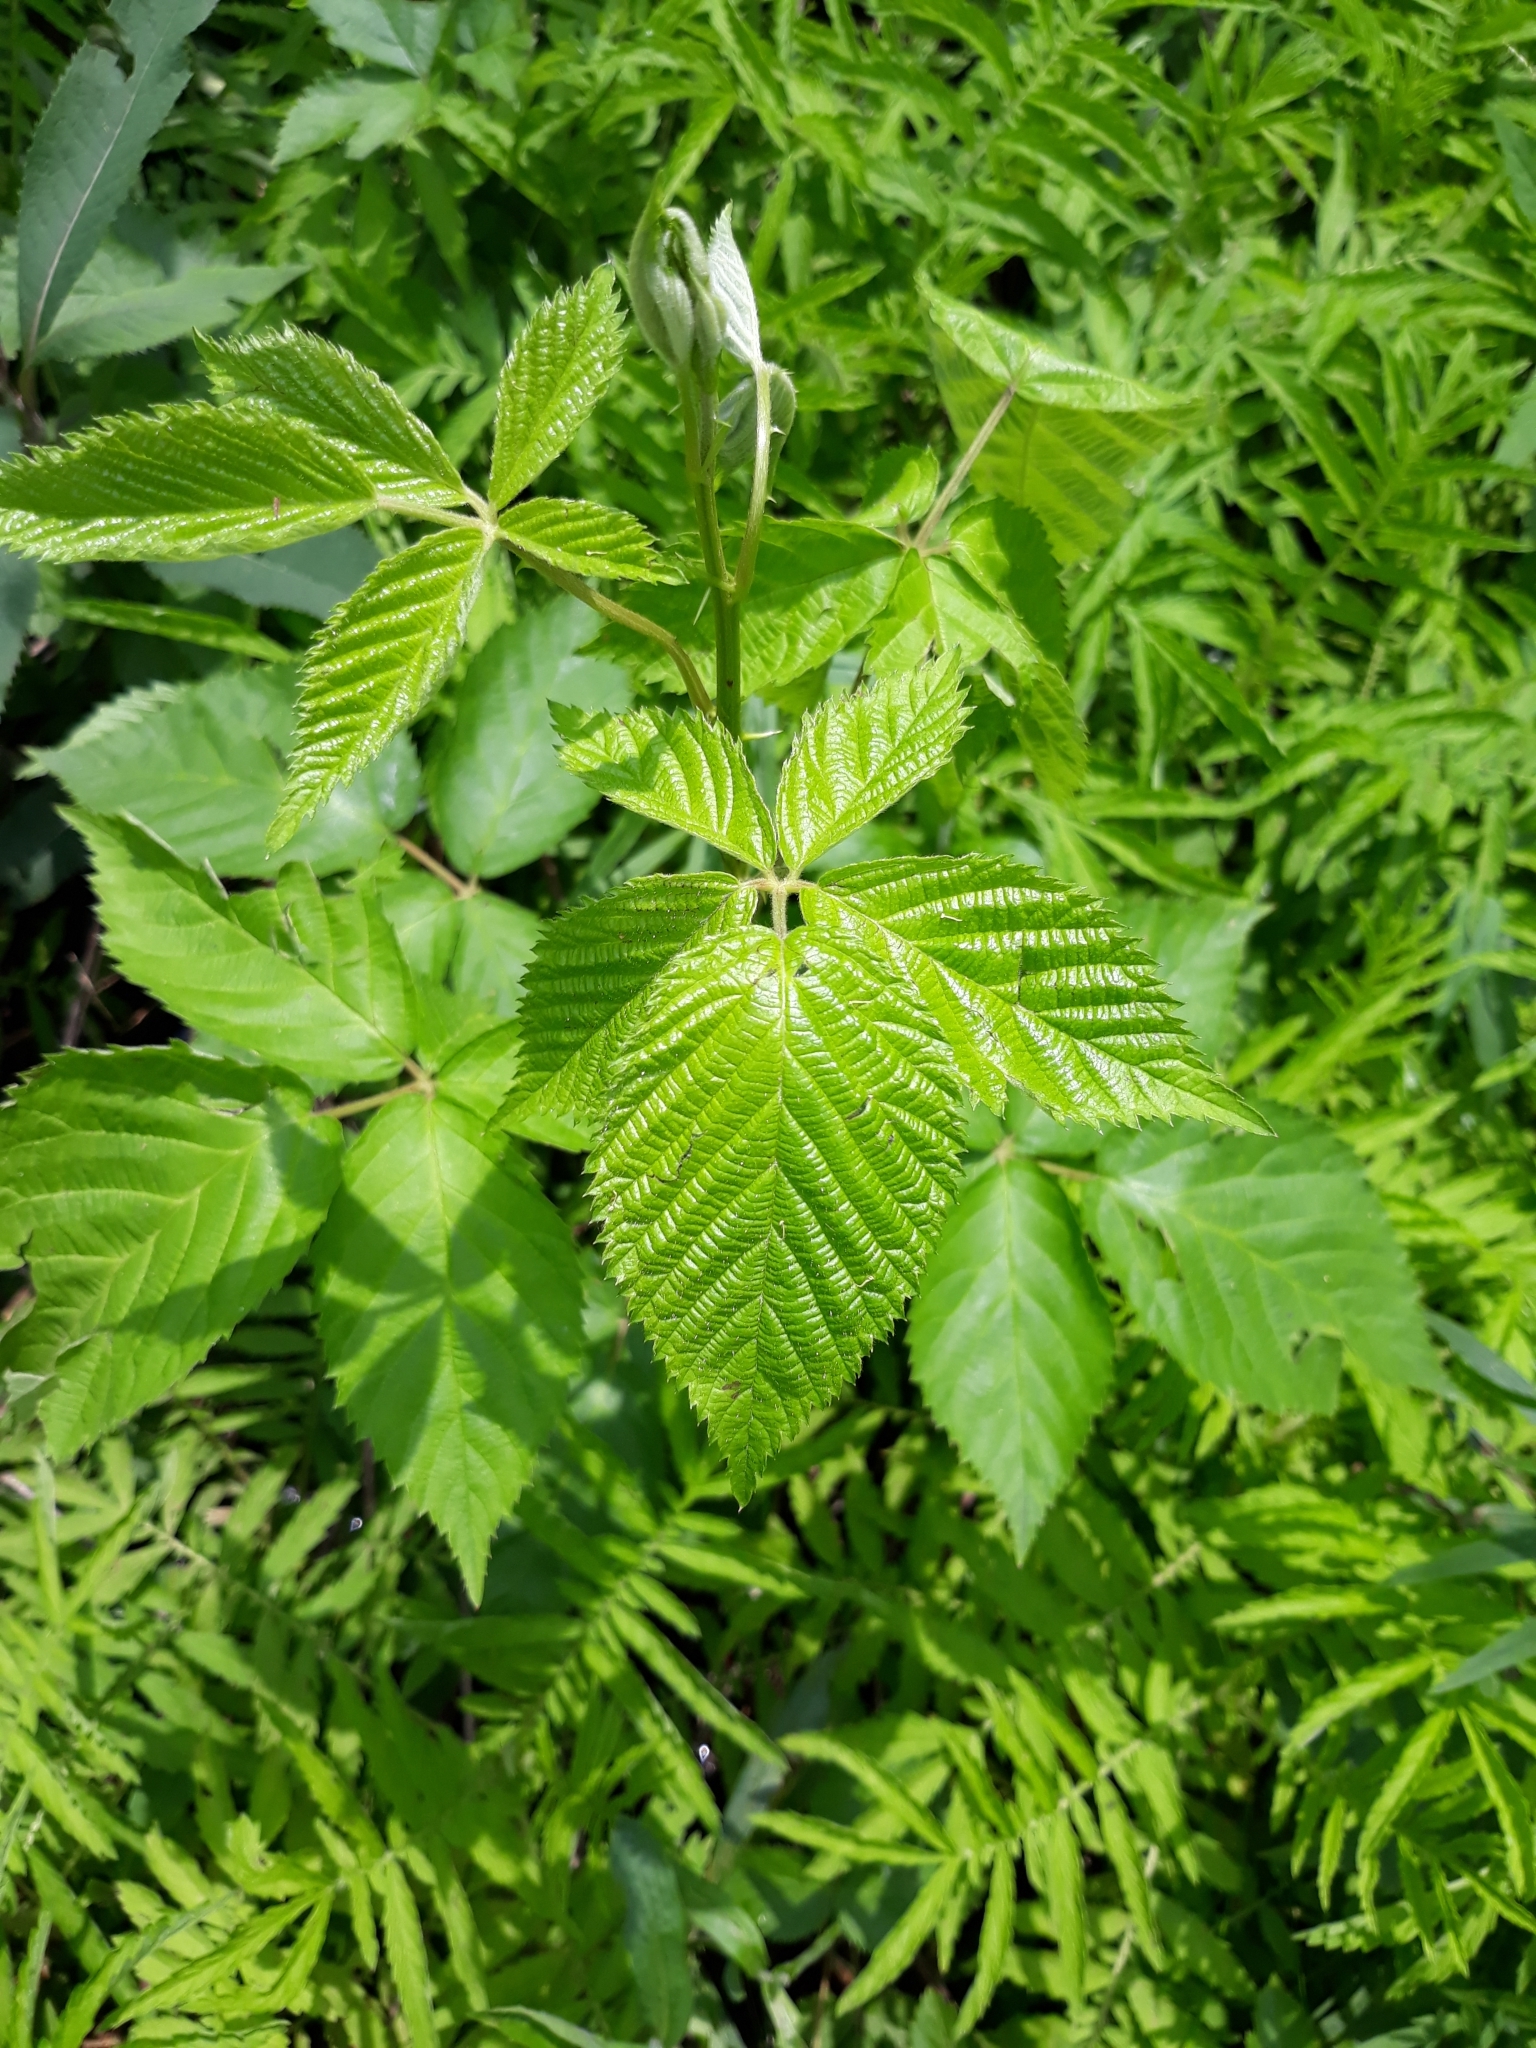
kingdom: Plantae
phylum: Tracheophyta
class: Magnoliopsida
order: Rosales
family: Rosaceae
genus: Rubus
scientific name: Rubus allegheniensis
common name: Allegheny blackberry
